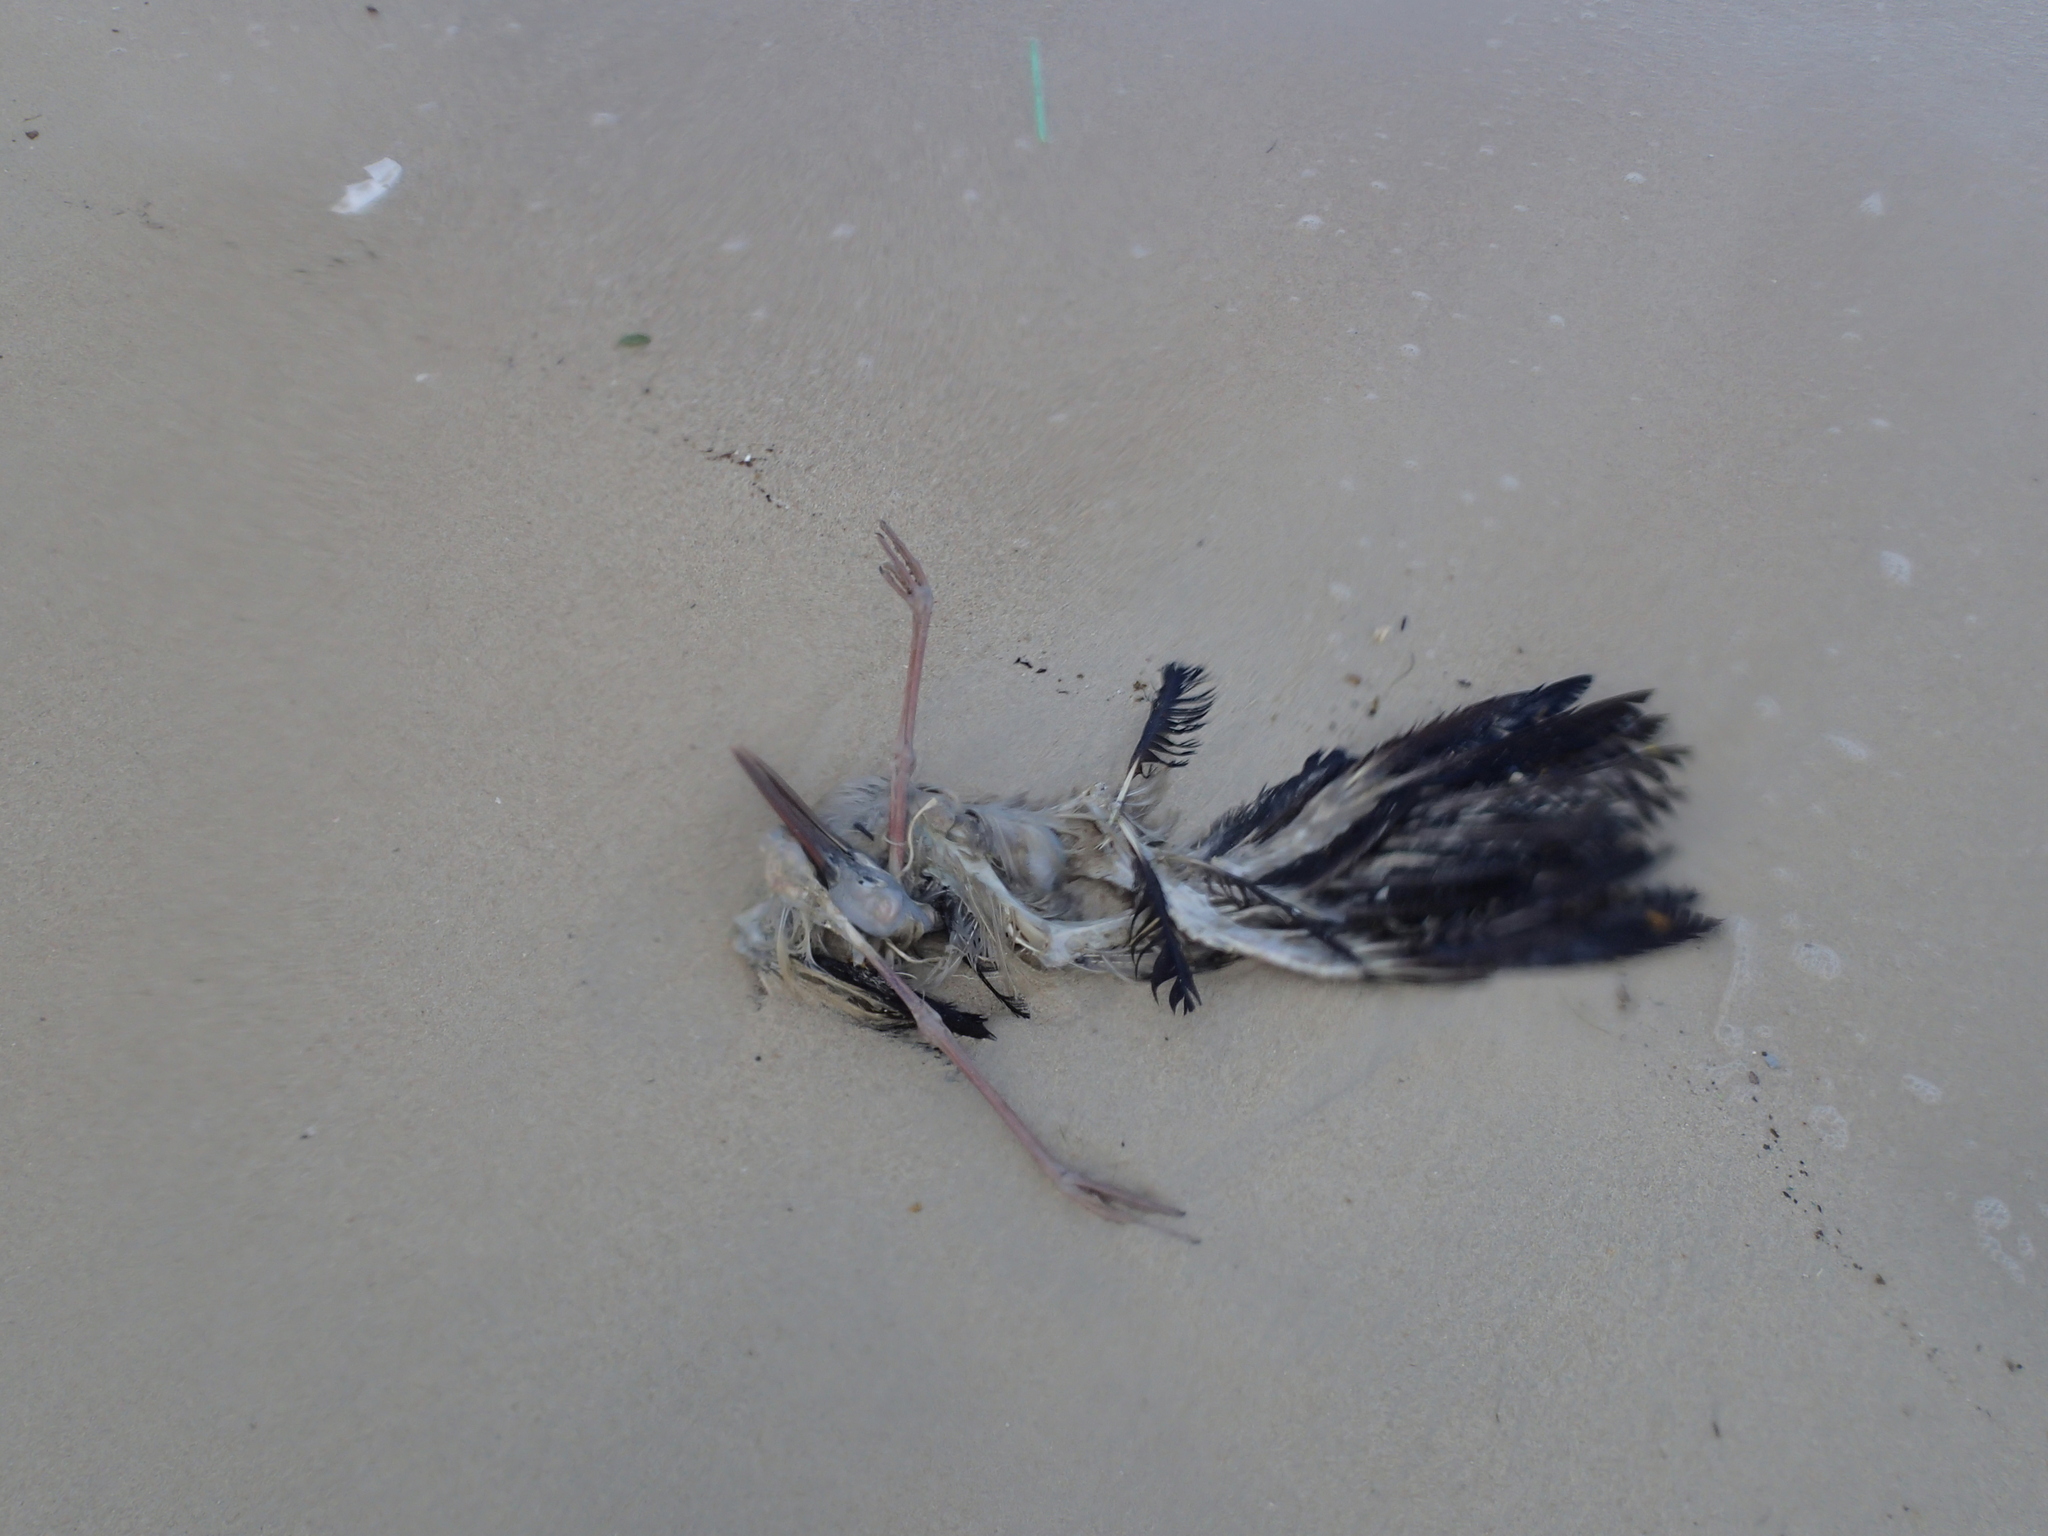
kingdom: Animalia
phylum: Chordata
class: Aves
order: Ciconiiformes
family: Ciconiidae
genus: Anastomus
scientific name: Anastomus oscitans
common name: Asian openbill
